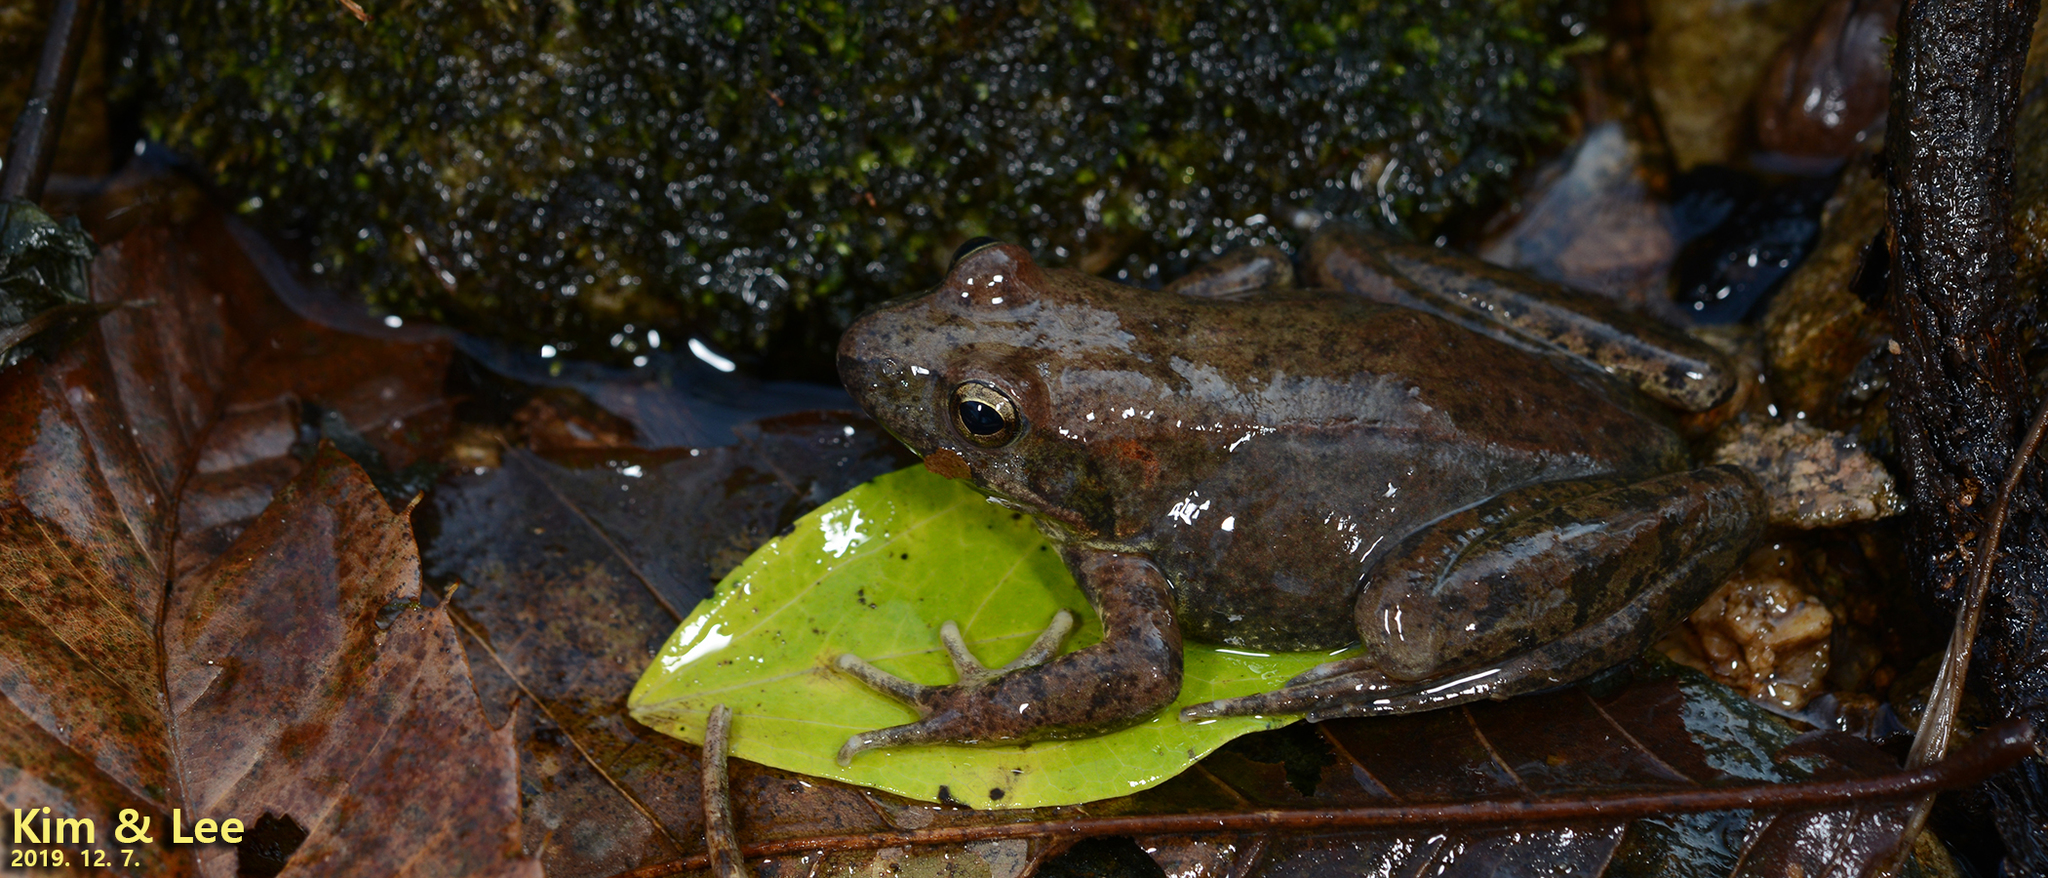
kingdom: Animalia
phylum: Chordata
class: Amphibia
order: Anura
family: Ranidae
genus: Rana
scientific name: Rana huanrenensis
